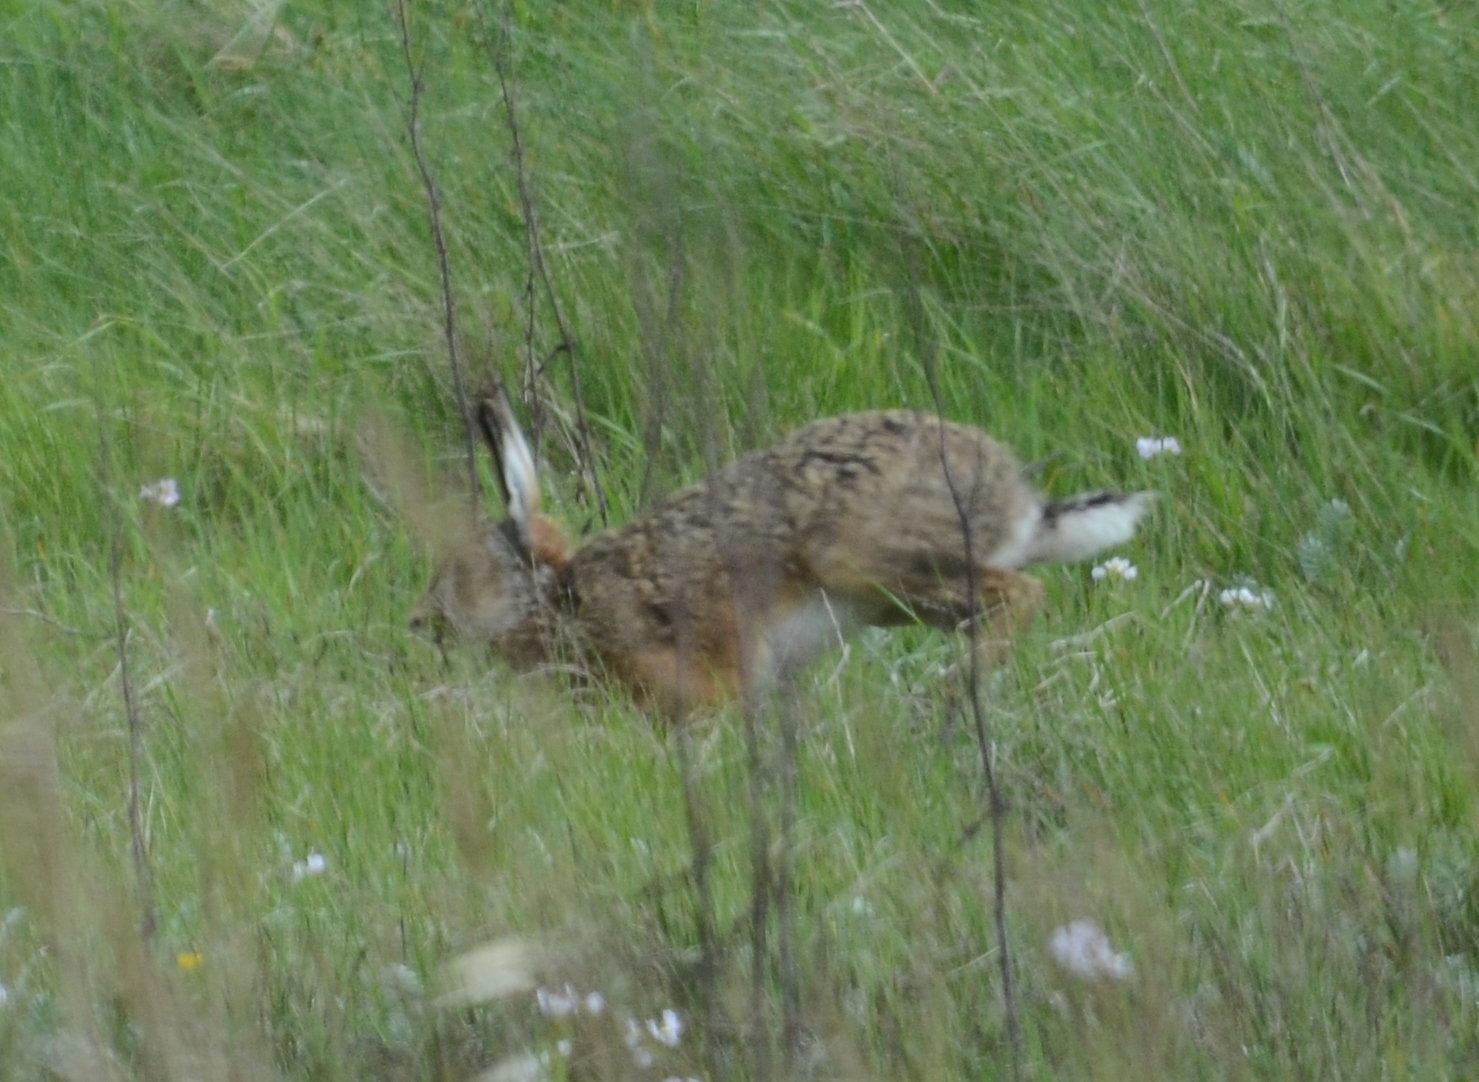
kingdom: Animalia
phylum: Chordata
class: Mammalia
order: Lagomorpha
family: Leporidae
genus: Lepus
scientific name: Lepus europaeus
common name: European hare
